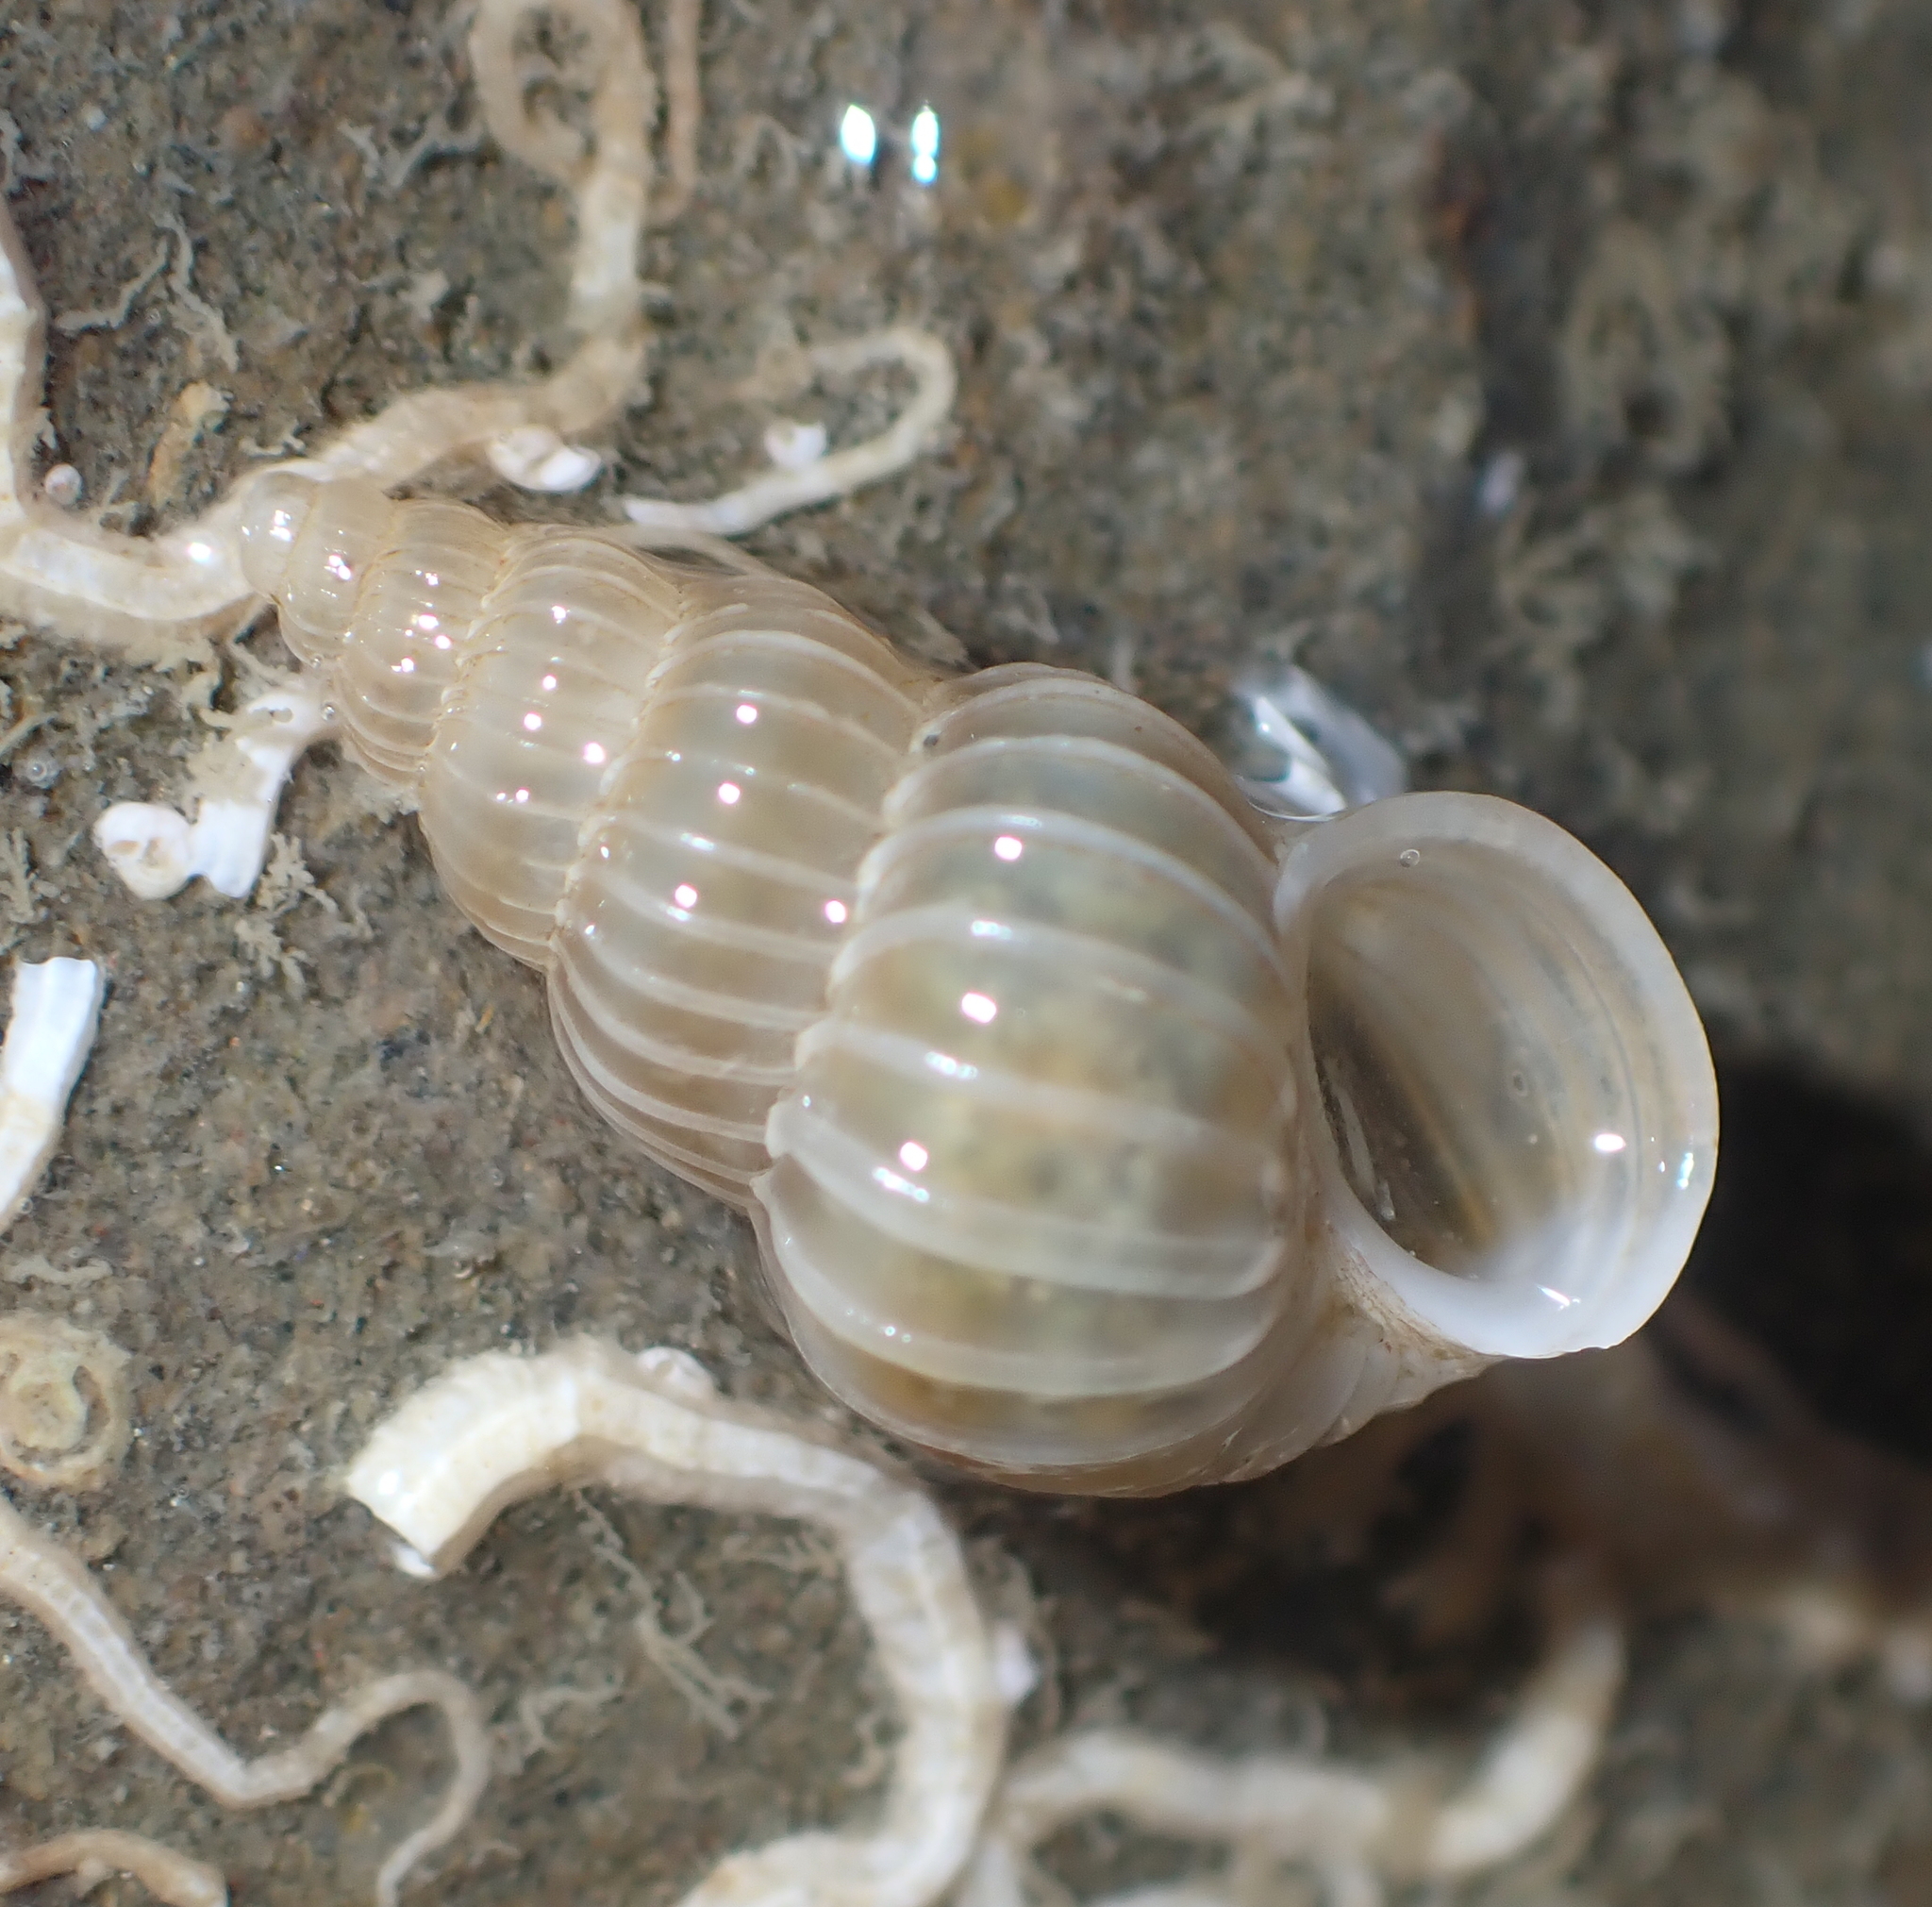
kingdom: Animalia
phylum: Mollusca
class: Gastropoda
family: Epitoniidae
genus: Epitonium
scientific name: Epitonium tenellum
